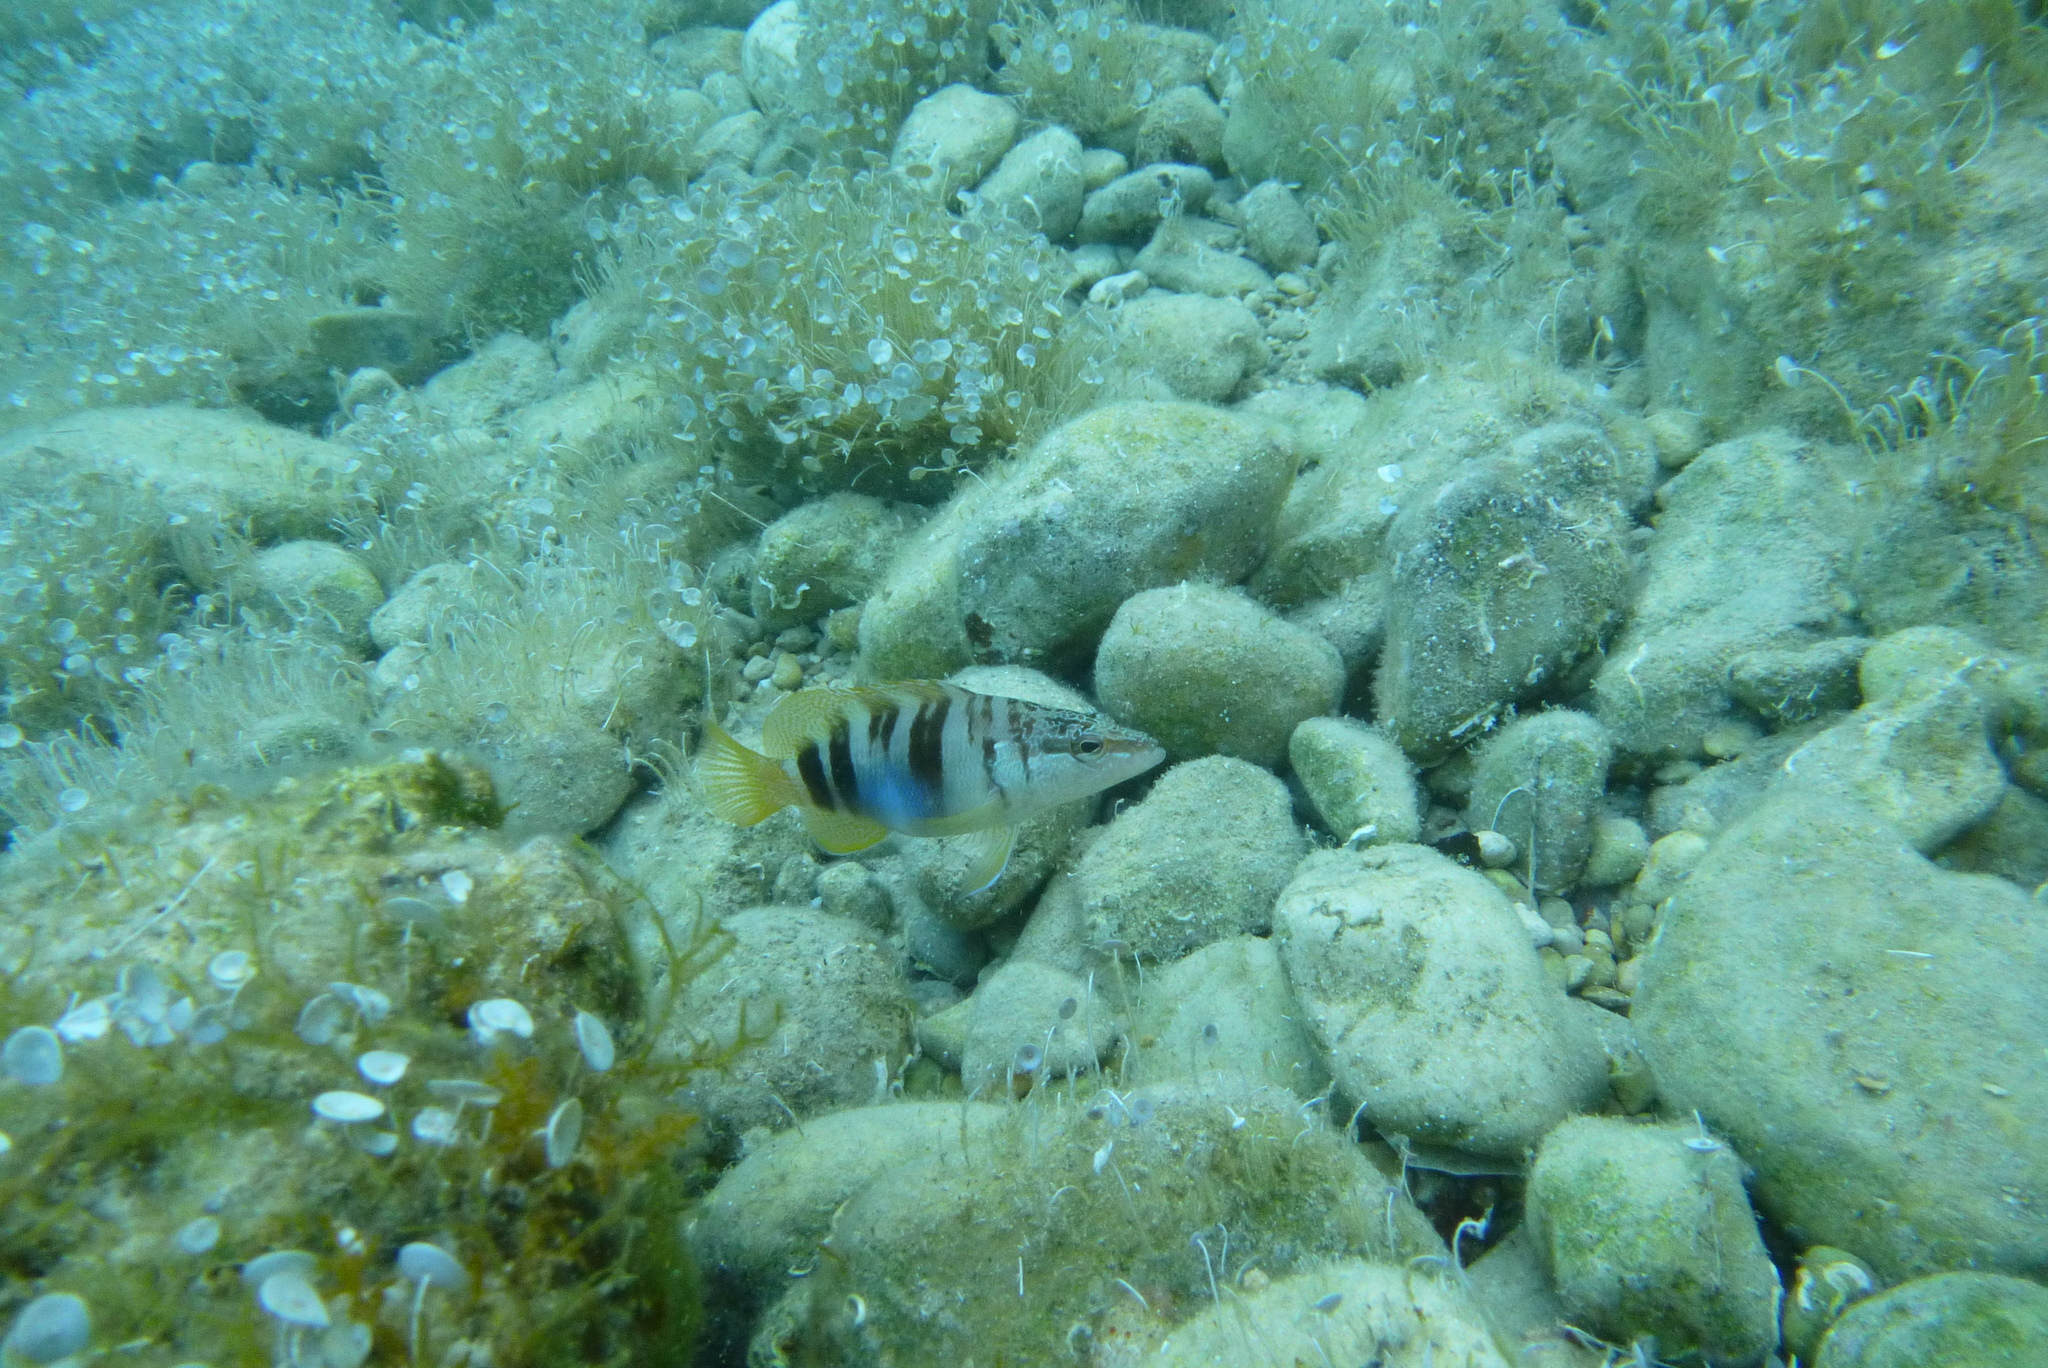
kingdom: Animalia
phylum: Chordata
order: Perciformes
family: Serranidae
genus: Serranus
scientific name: Serranus scriba
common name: Painted comber
